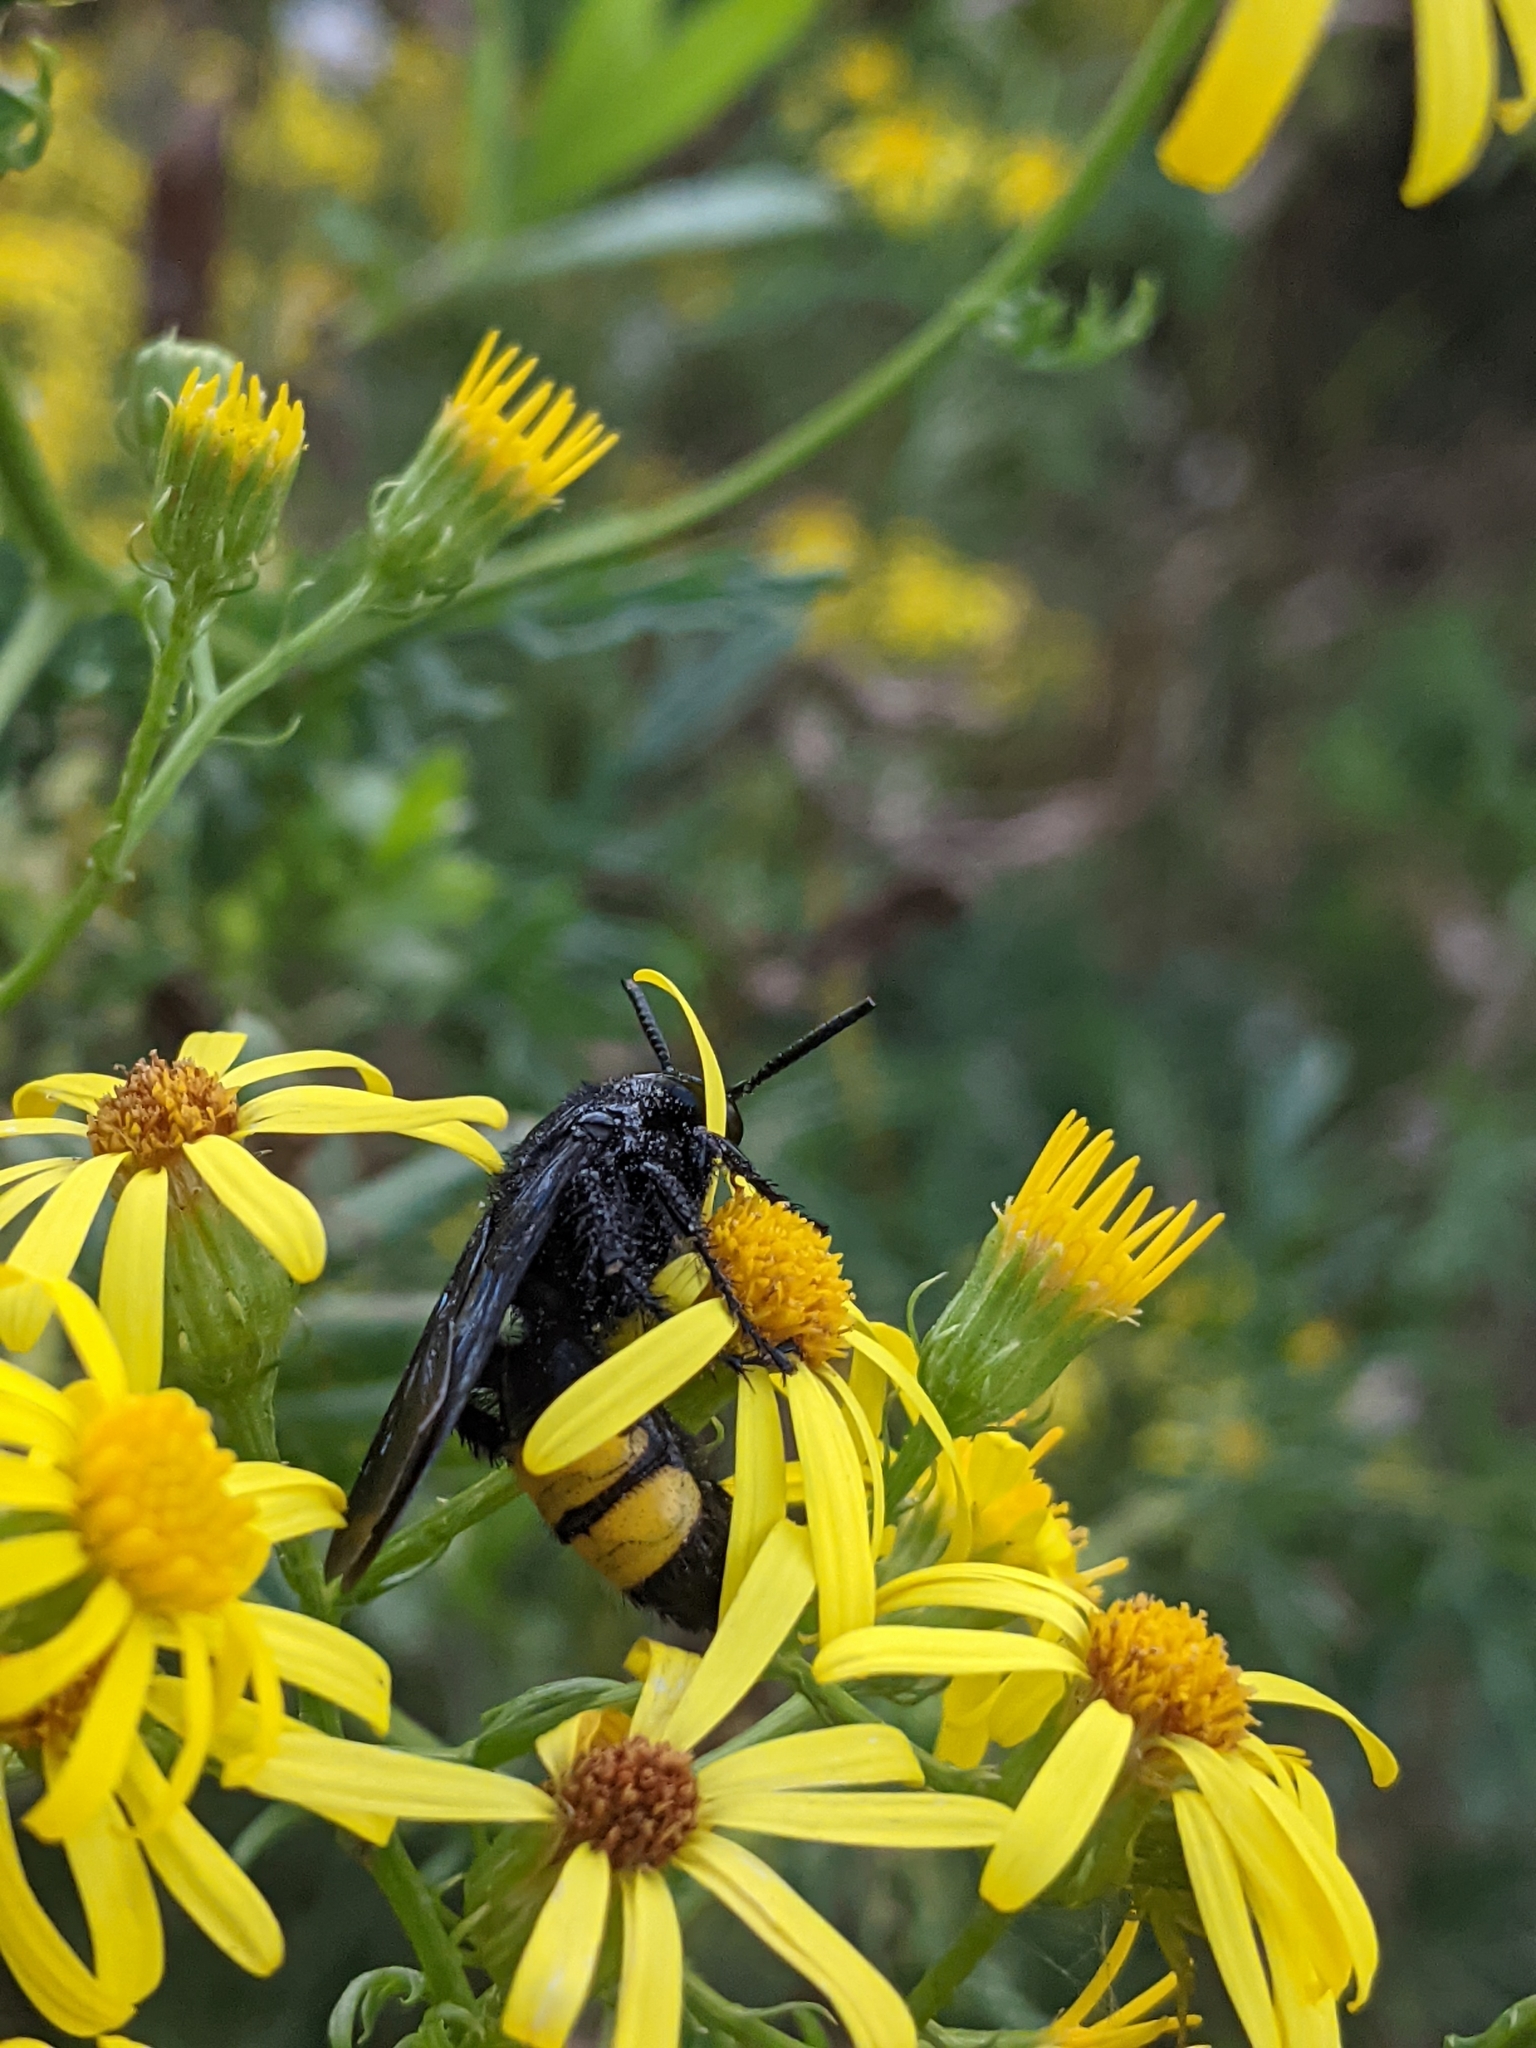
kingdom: Animalia
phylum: Arthropoda
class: Insecta
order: Hymenoptera
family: Scoliidae
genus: Scolia
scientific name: Scolia hirta
